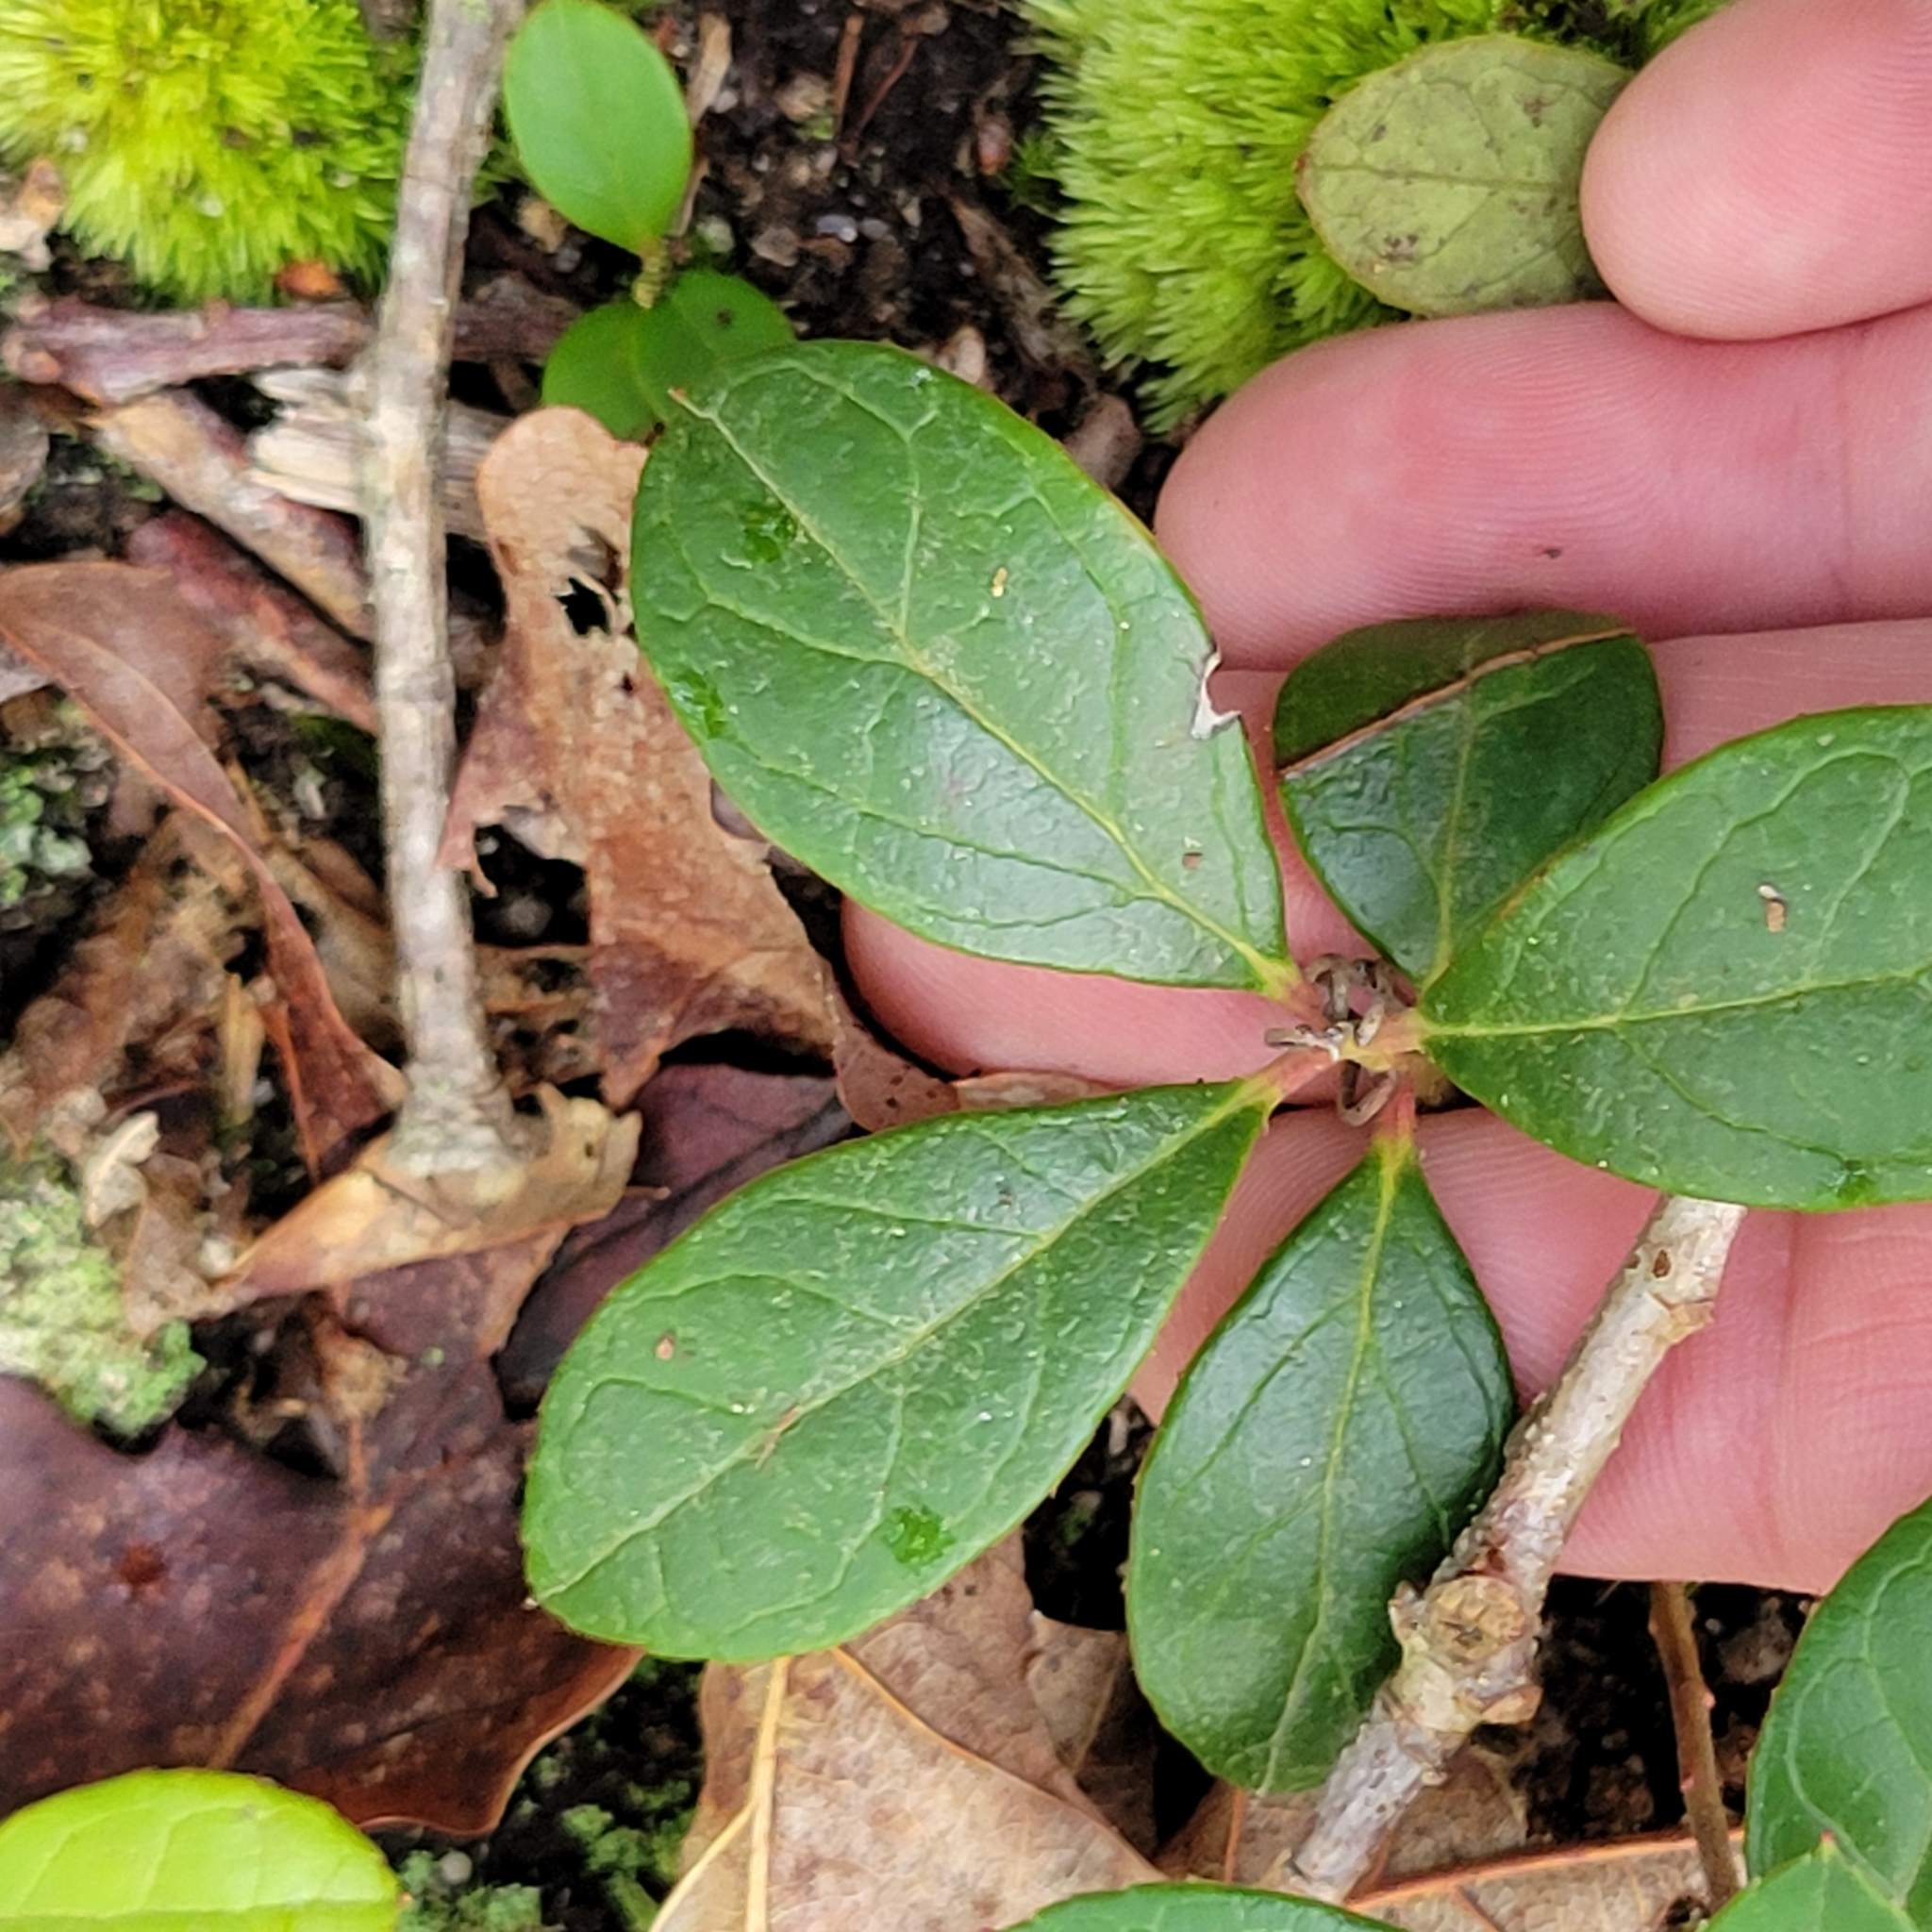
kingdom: Plantae
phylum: Tracheophyta
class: Magnoliopsida
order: Ericales
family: Ericaceae
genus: Gaultheria
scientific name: Gaultheria procumbens
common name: Checkerberry
